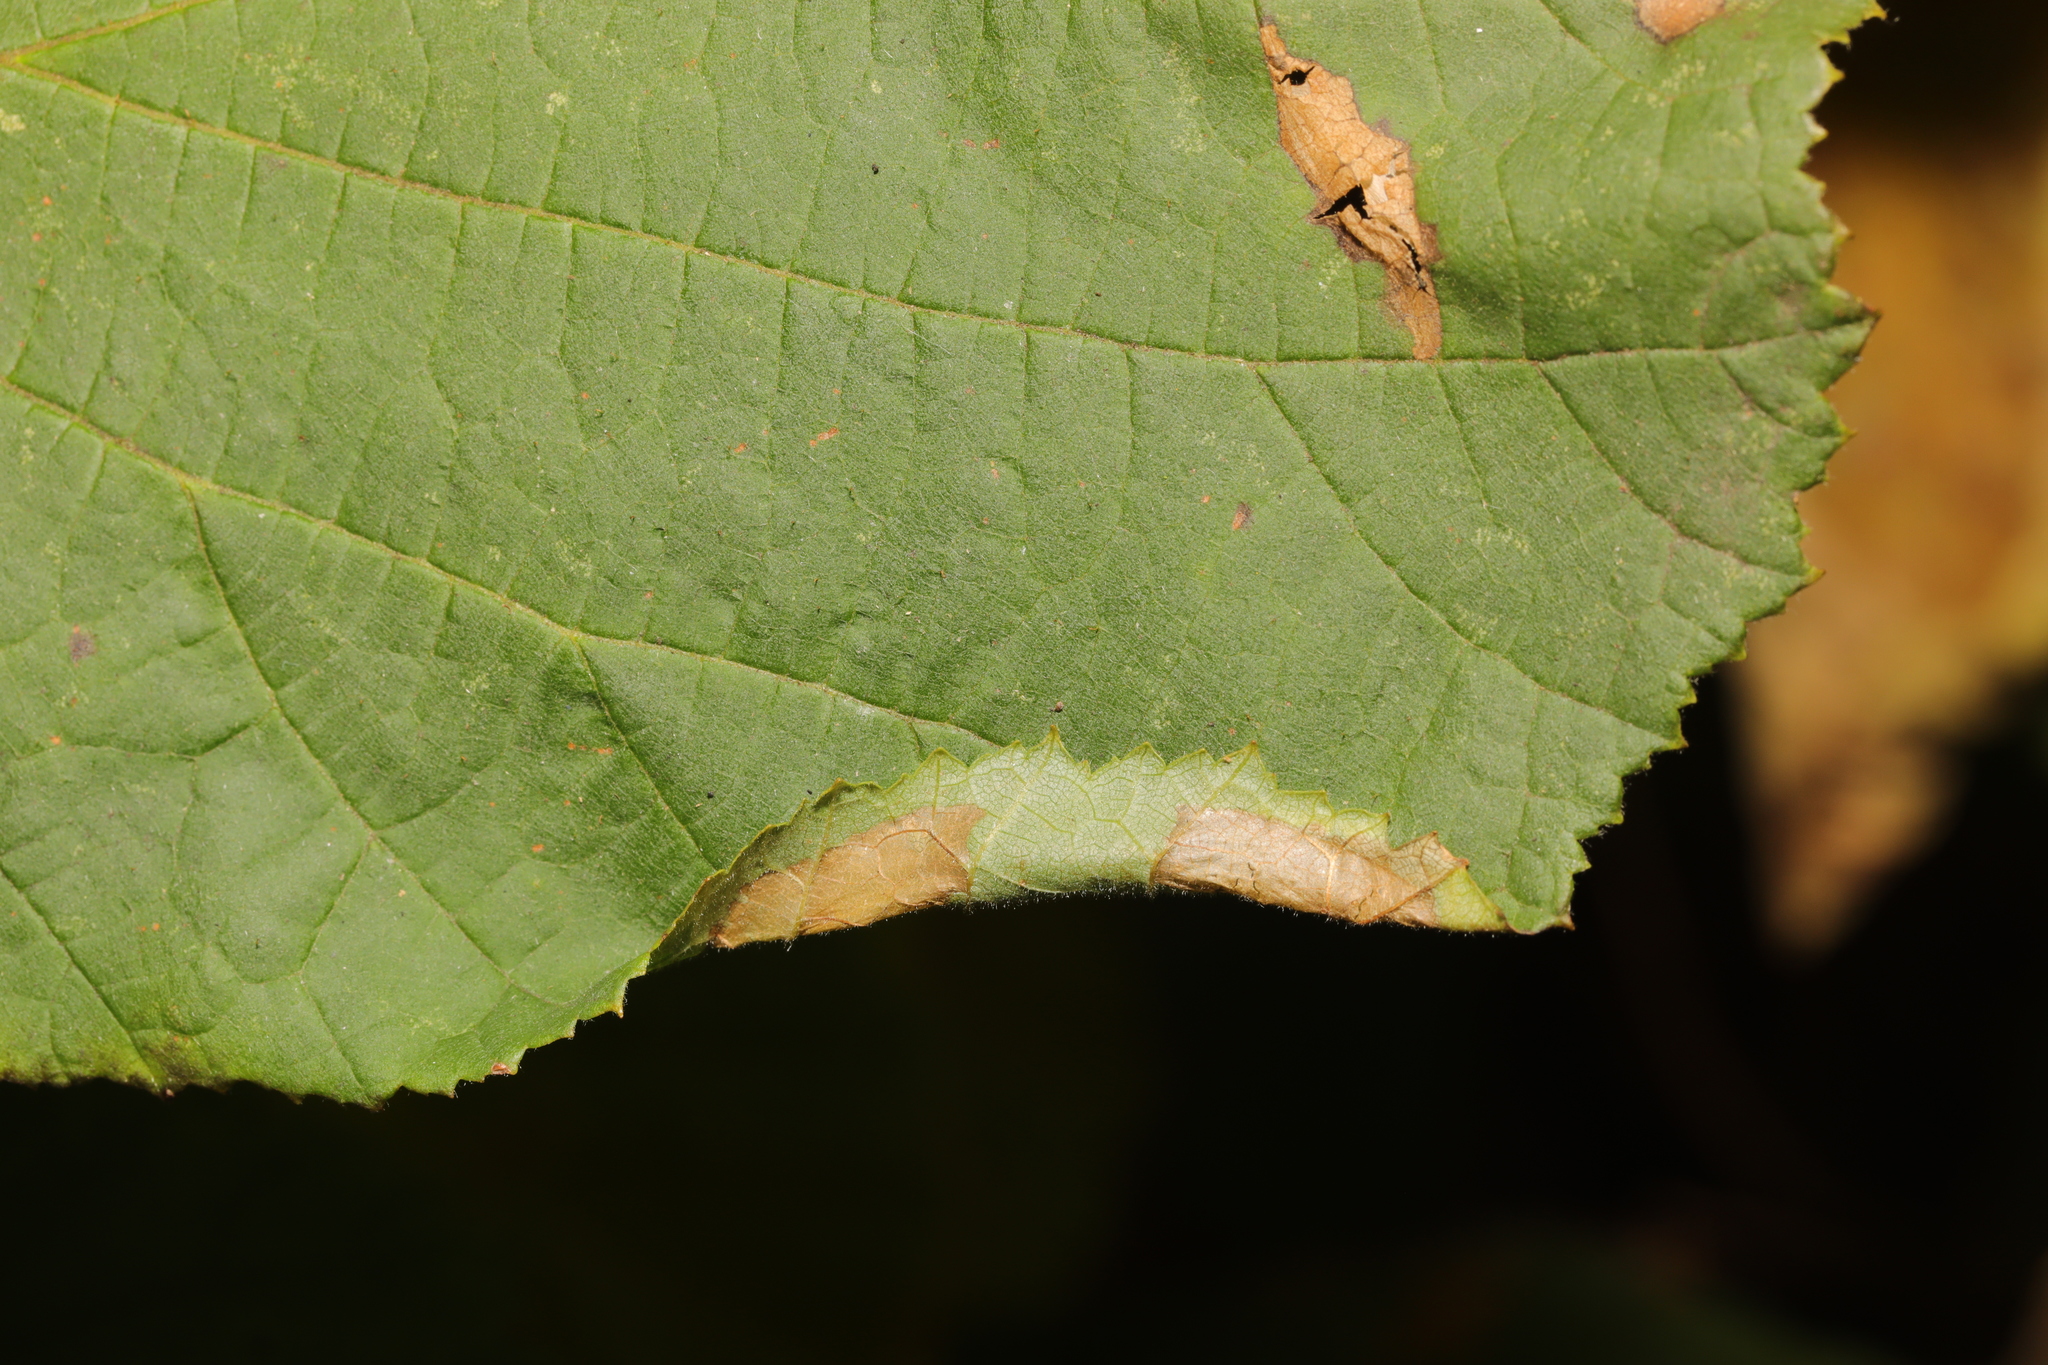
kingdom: Animalia
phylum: Arthropoda
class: Insecta
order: Lepidoptera
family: Gracillariidae
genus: Parornix
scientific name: Parornix devoniella
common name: Hazel slender
